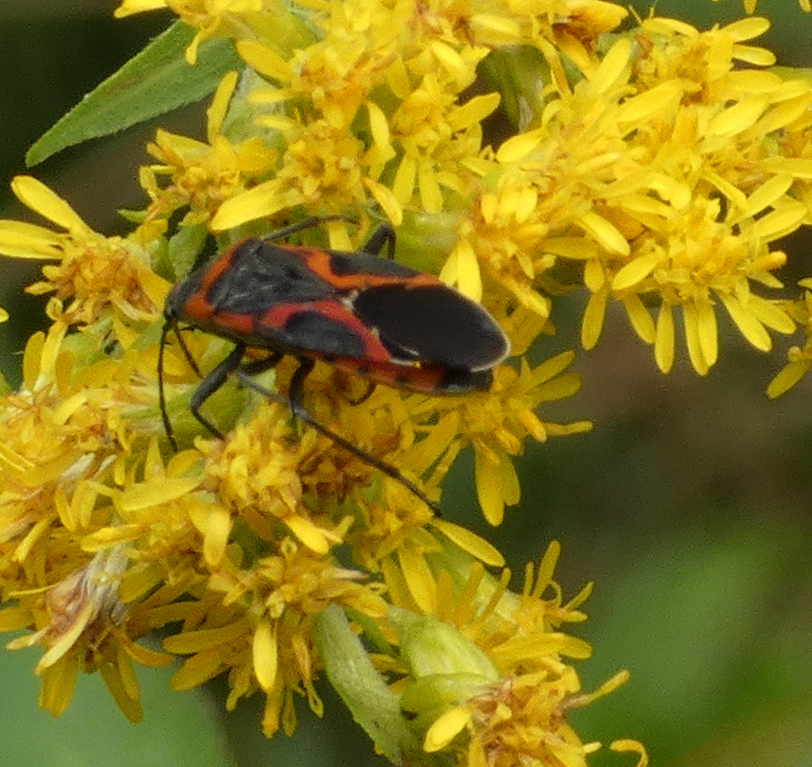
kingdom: Animalia
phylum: Arthropoda
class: Insecta
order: Hemiptera
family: Lygaeidae
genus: Lygaeus
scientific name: Lygaeus kalmii
